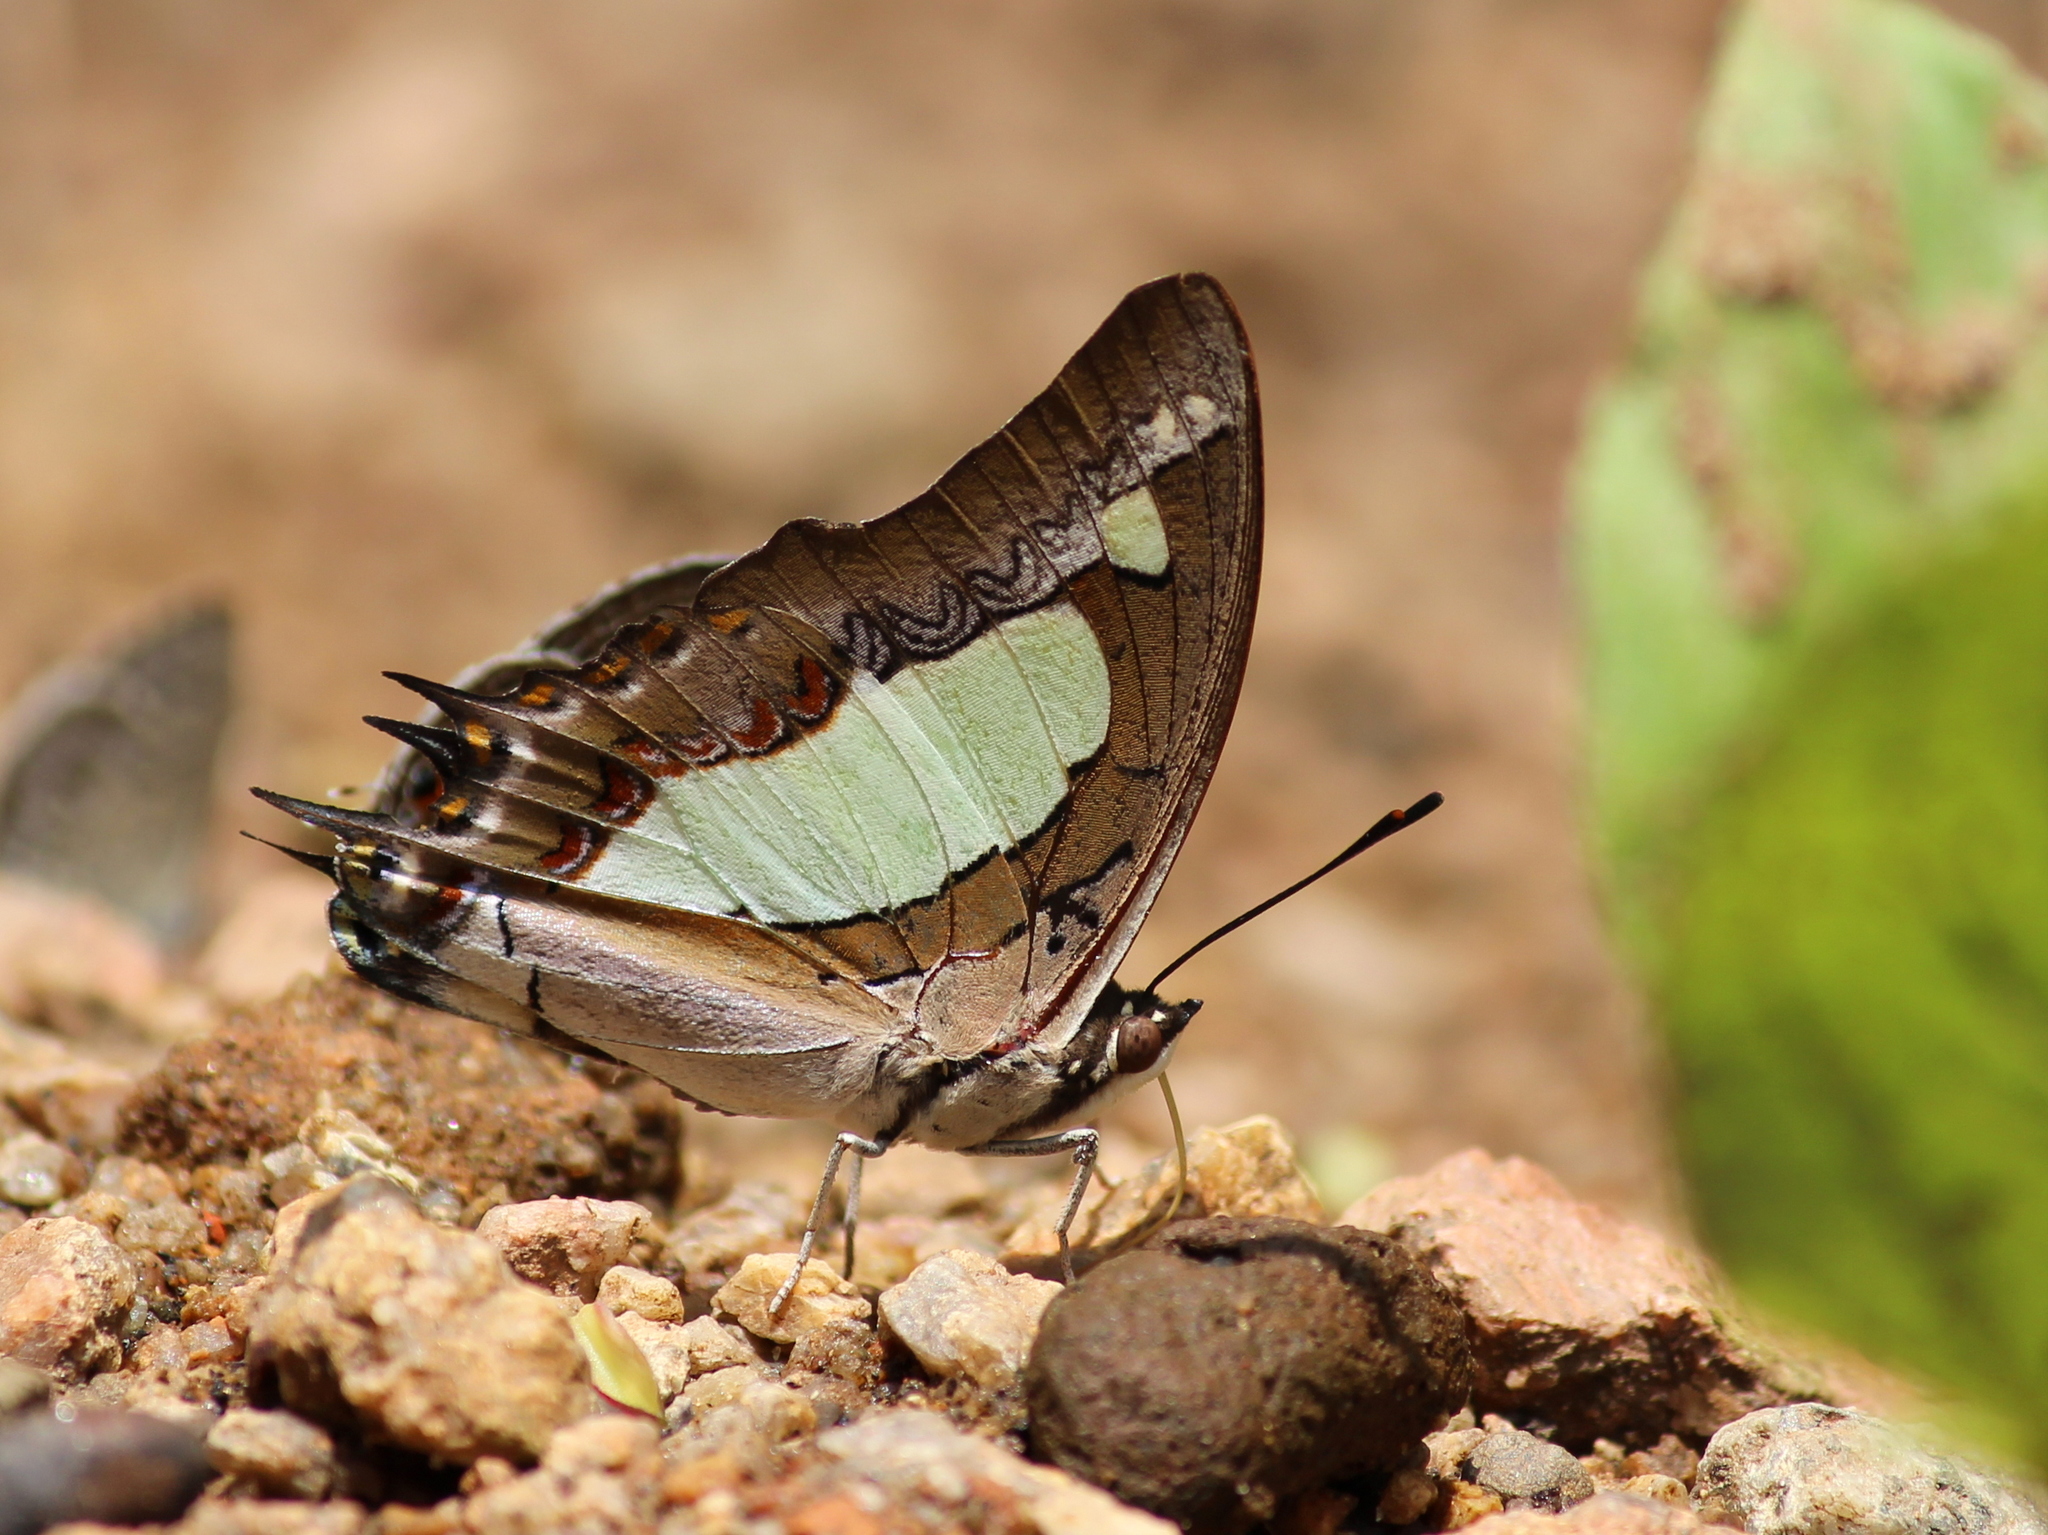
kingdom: Animalia
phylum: Arthropoda
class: Insecta
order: Lepidoptera
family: Nymphalidae
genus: Polyura
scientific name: Polyura agrarius
